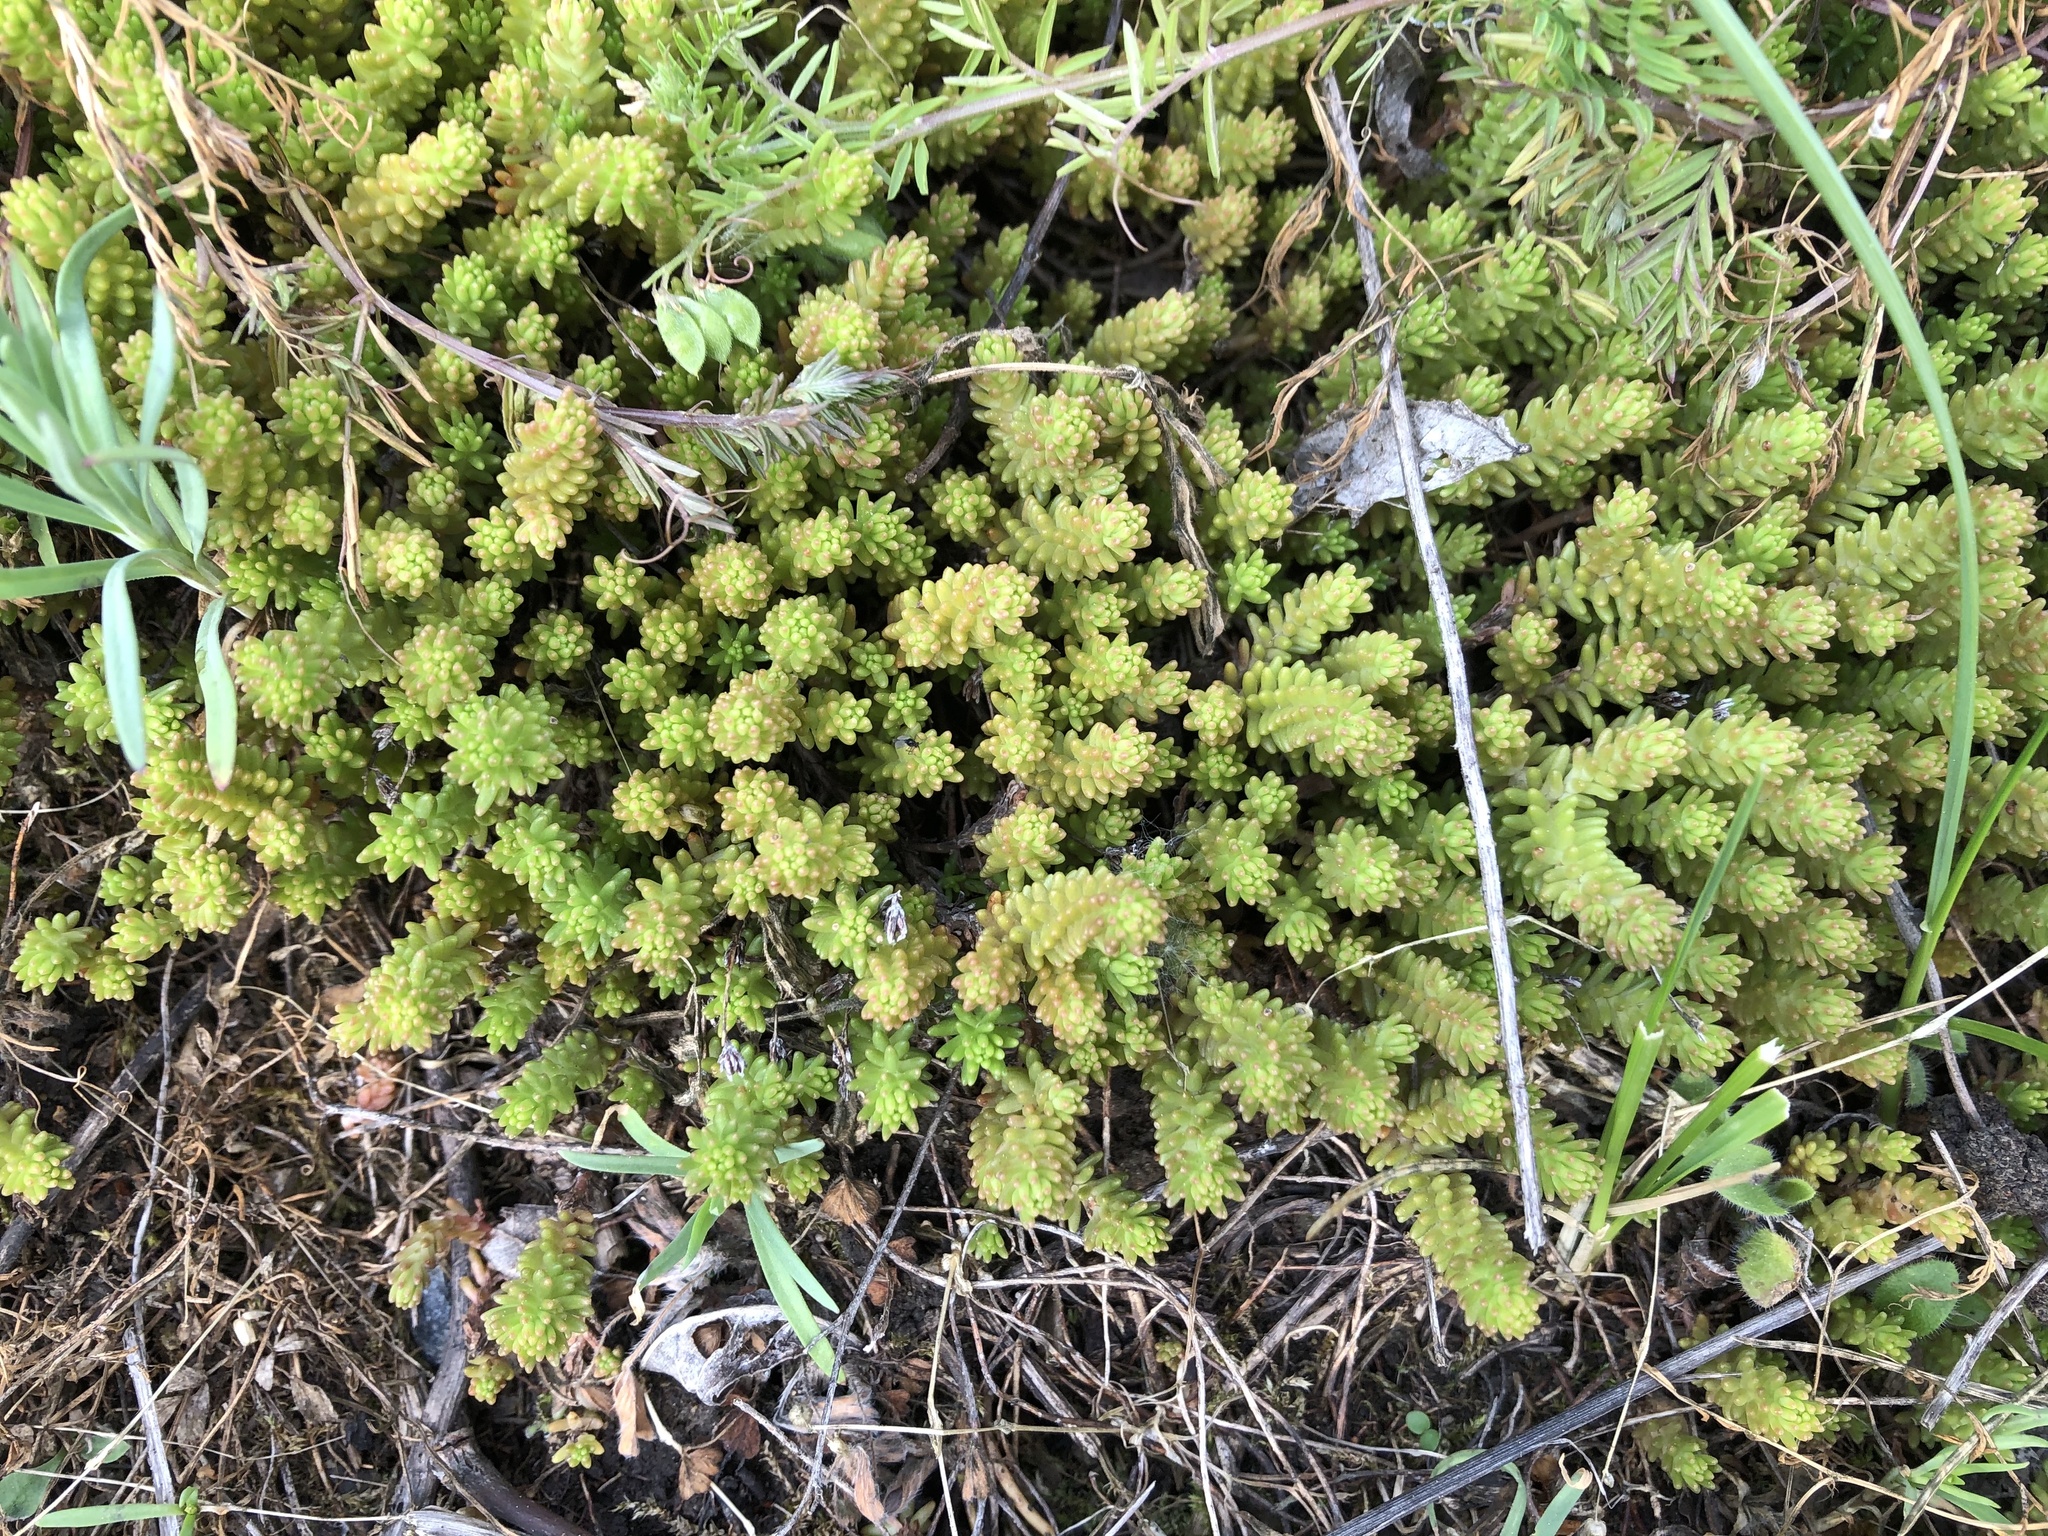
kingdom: Plantae
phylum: Tracheophyta
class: Magnoliopsida
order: Saxifragales
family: Crassulaceae
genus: Sedum
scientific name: Sedum sexangulare
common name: Tasteless stonecrop
